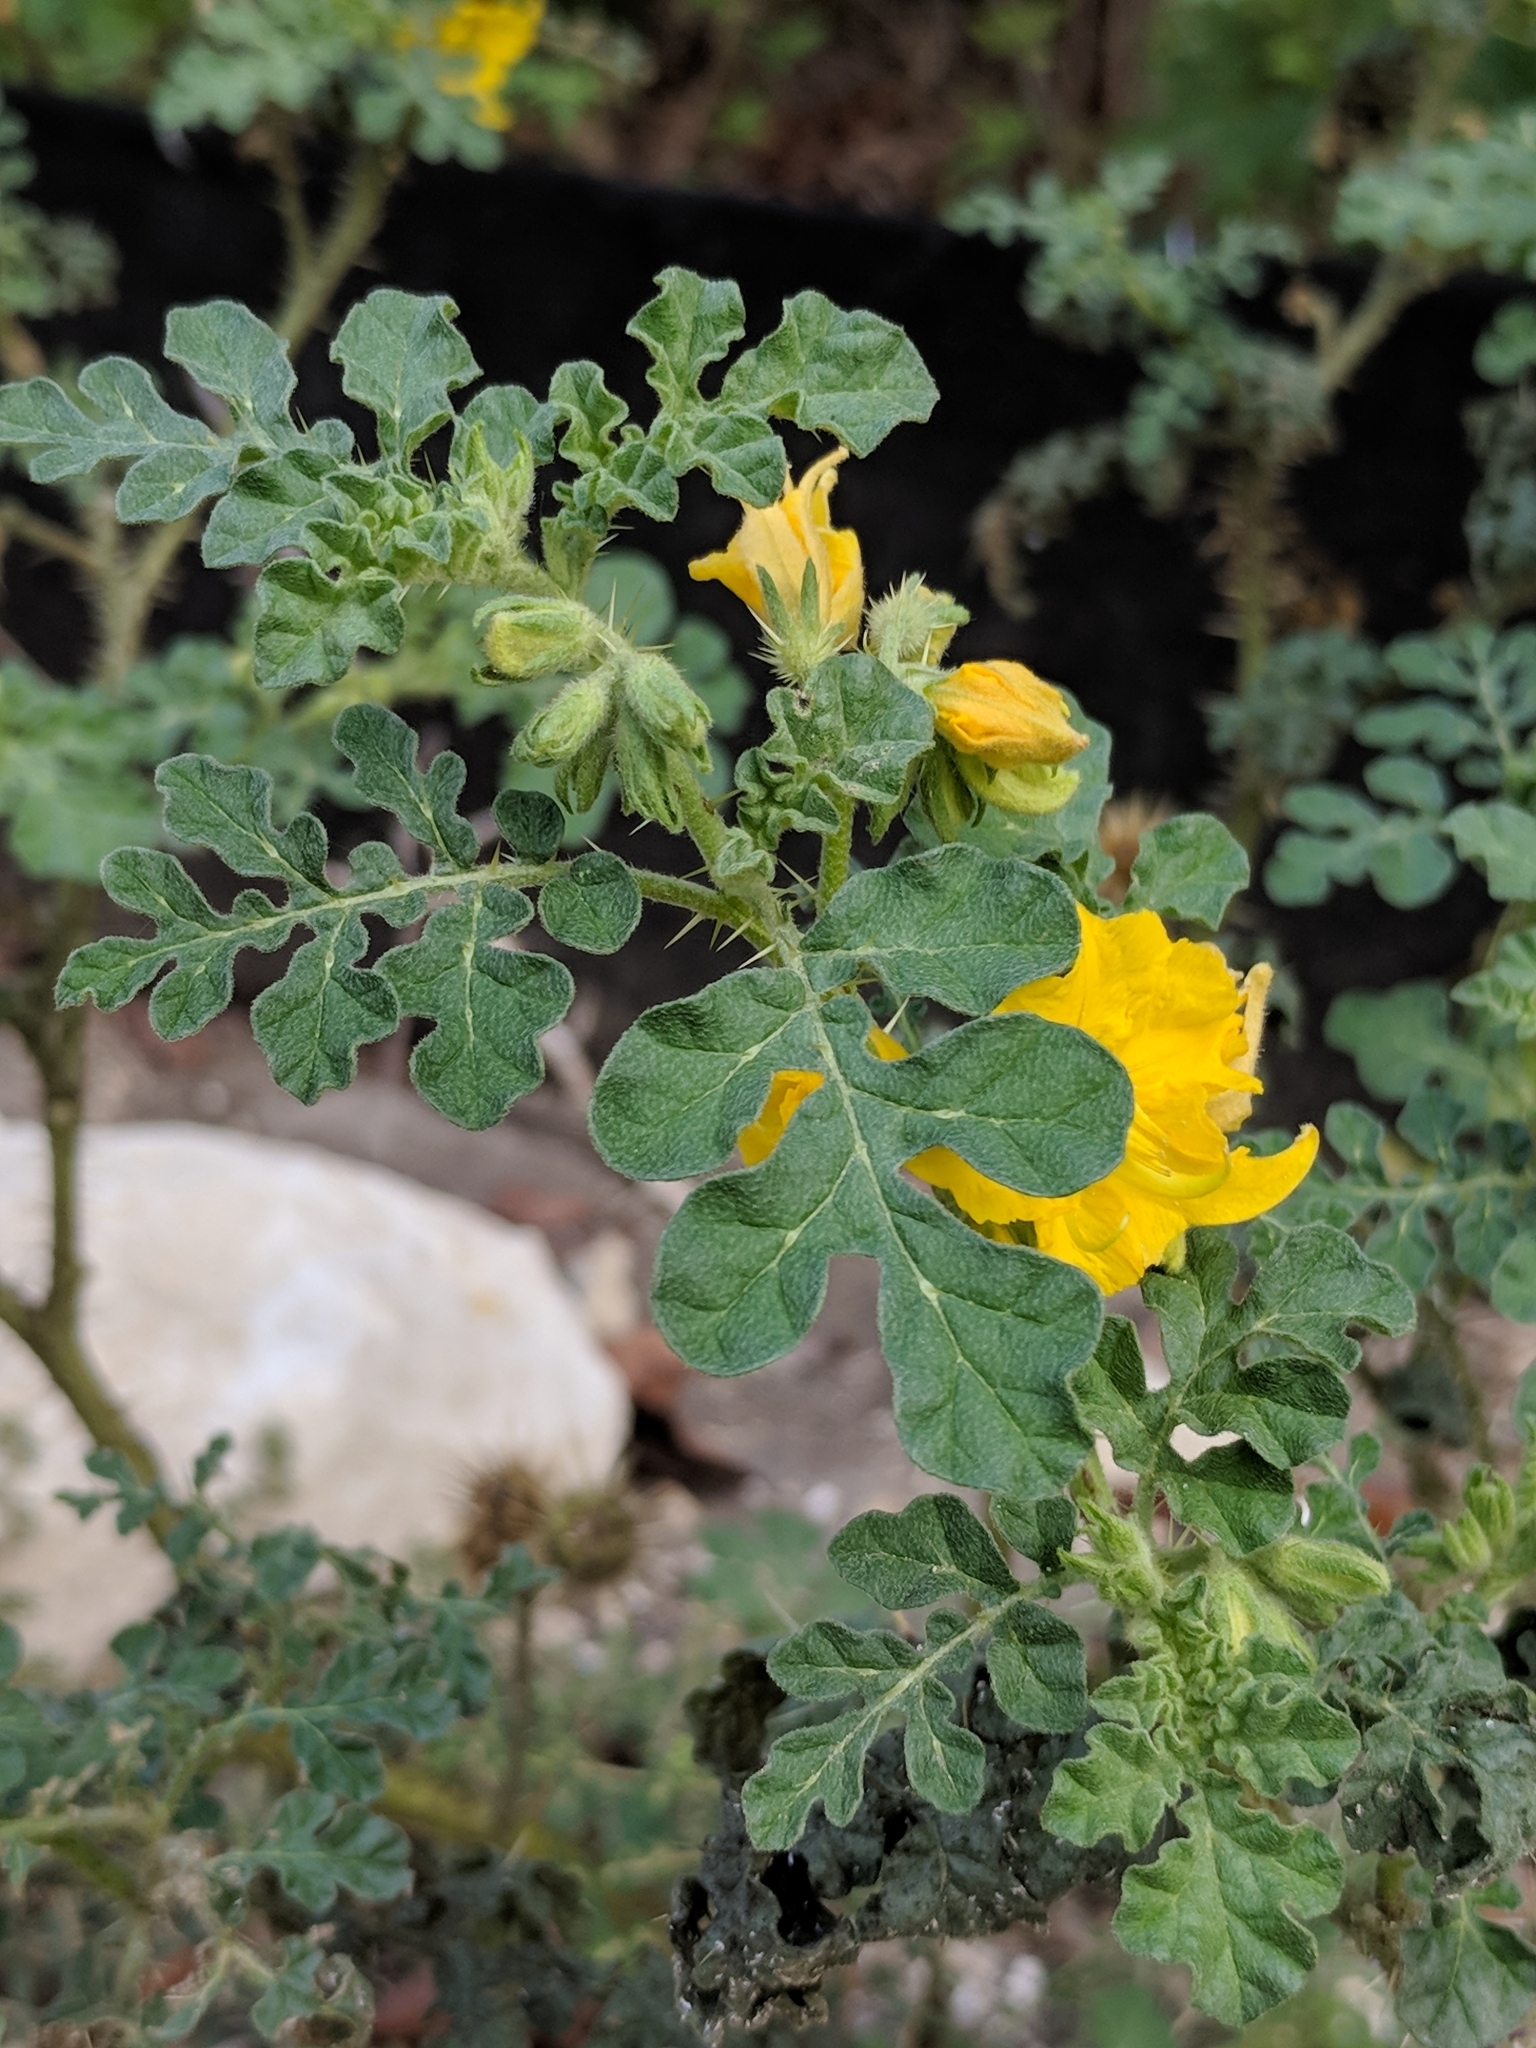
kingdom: Plantae
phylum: Tracheophyta
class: Magnoliopsida
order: Solanales
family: Solanaceae
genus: Solanum
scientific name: Solanum angustifolium
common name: Buffalobur nightshade
